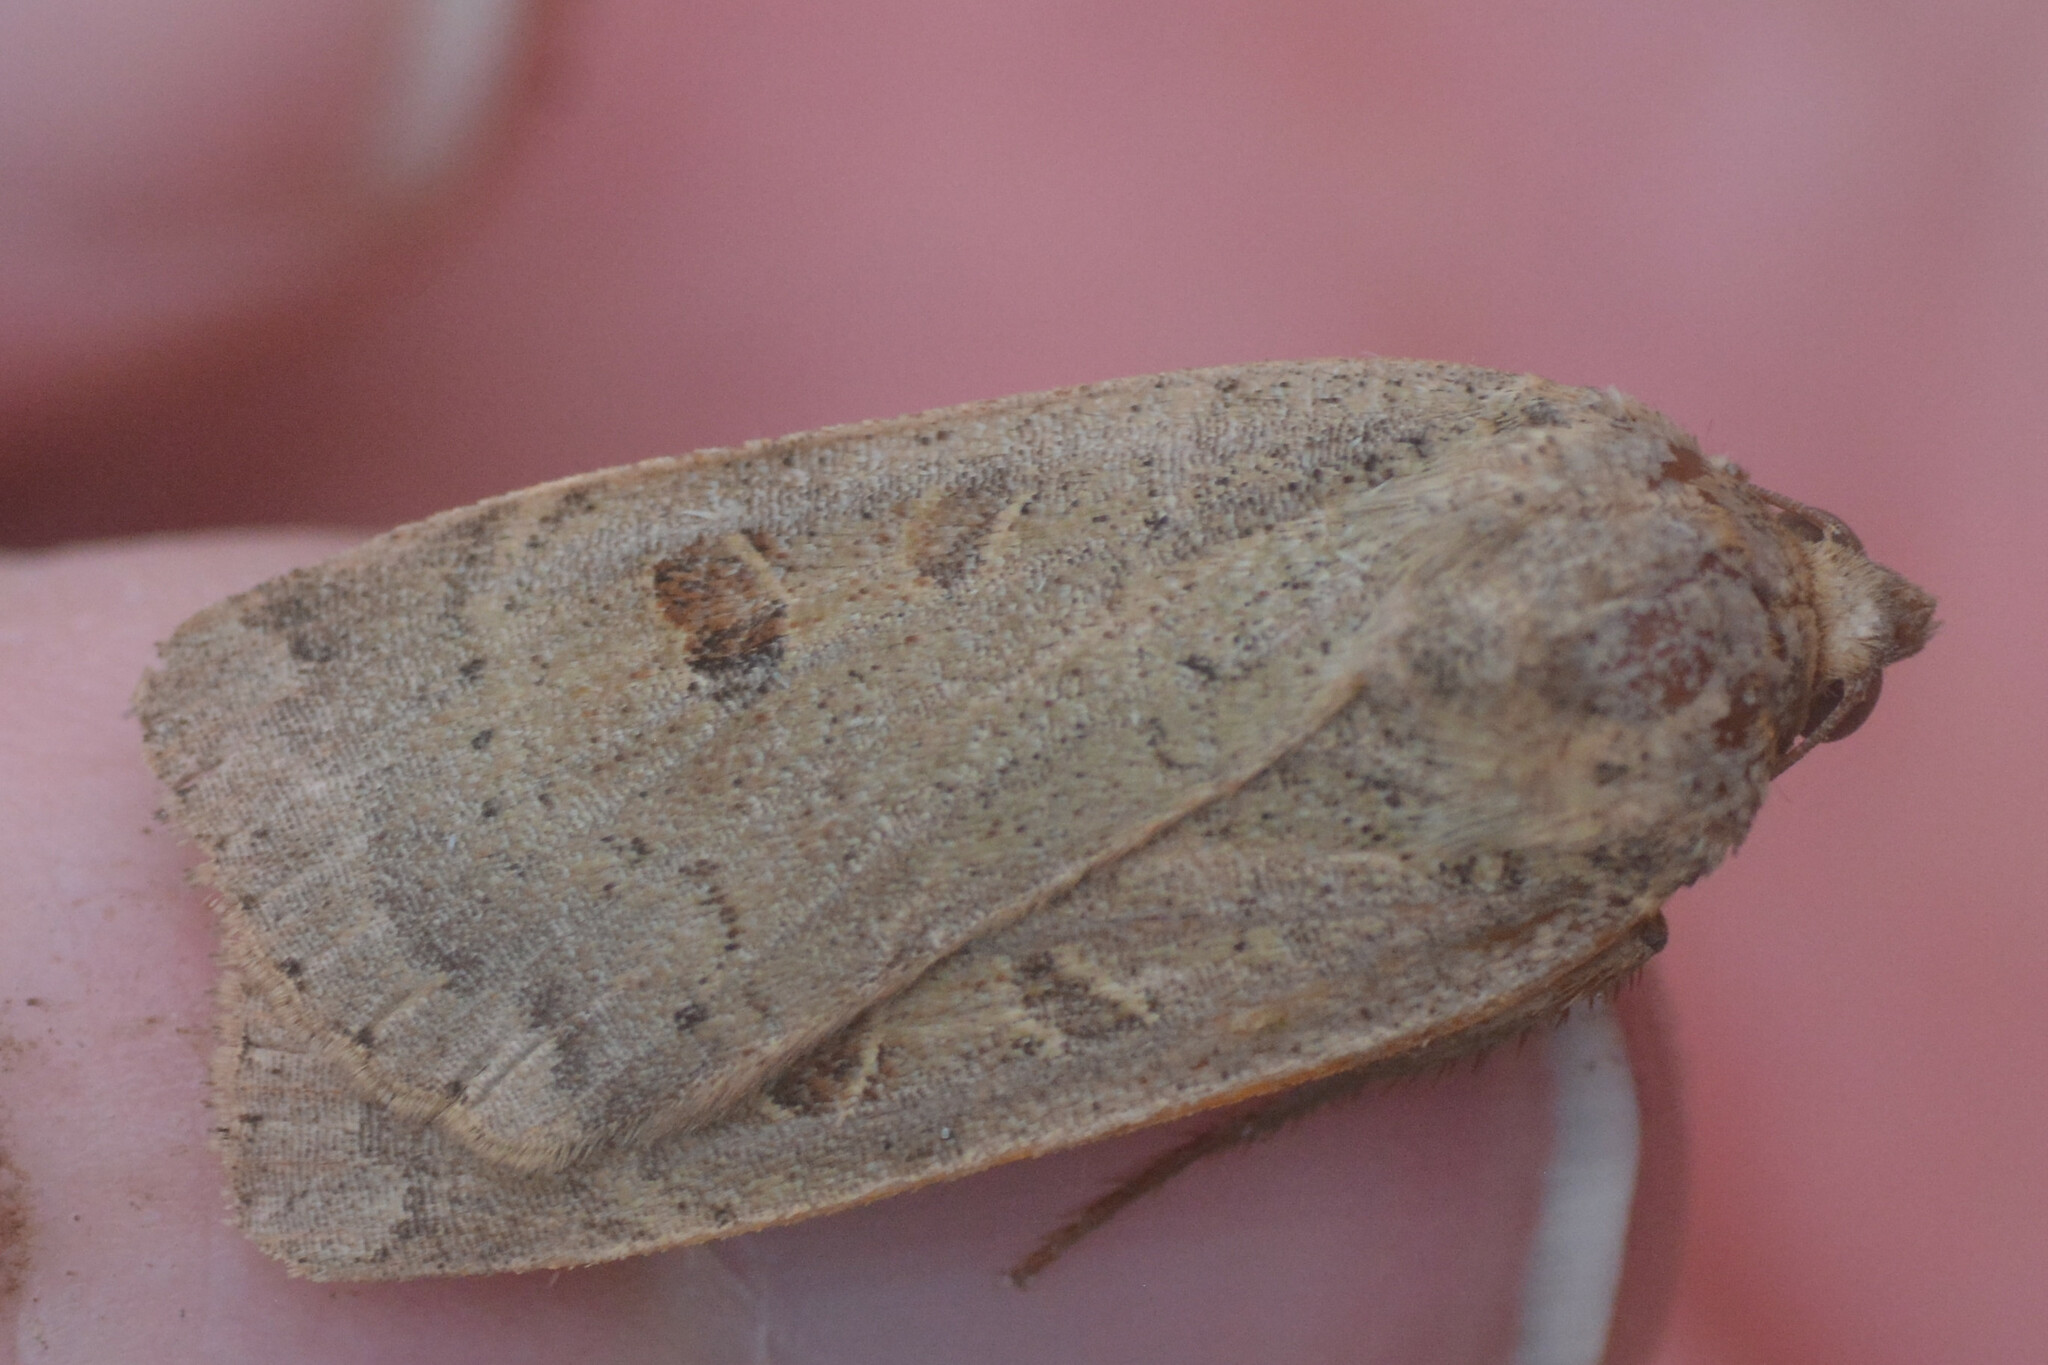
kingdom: Animalia
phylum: Arthropoda
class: Insecta
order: Lepidoptera
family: Noctuidae
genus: Noctua
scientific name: Noctua comes
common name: Lesser yellow underwing
